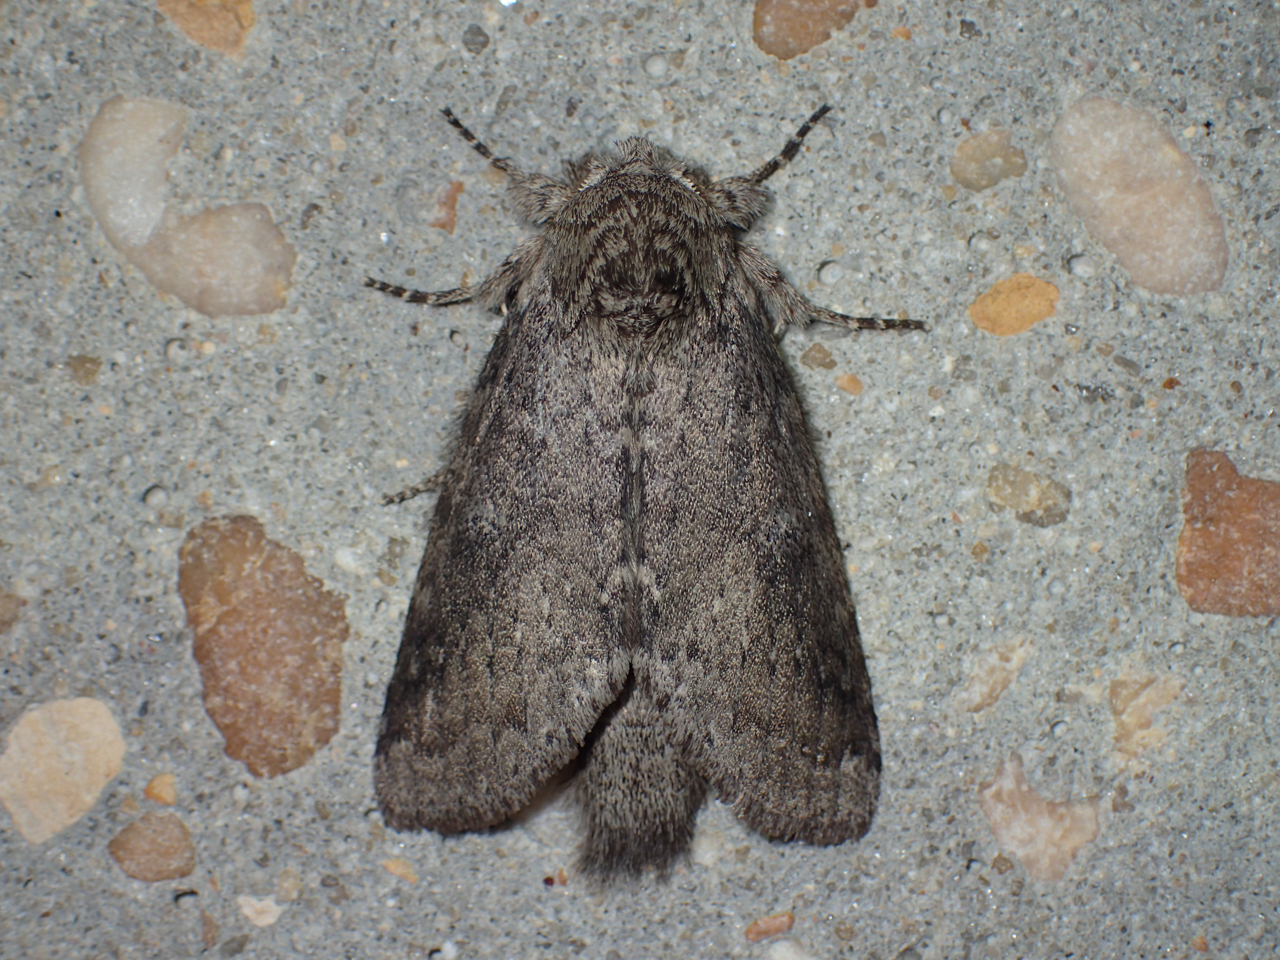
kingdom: Animalia
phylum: Arthropoda
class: Insecta
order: Lepidoptera
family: Notodontidae
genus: Lochmaeus
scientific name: Lochmaeus manteo
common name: Variable oakleaf caterpillar moth
